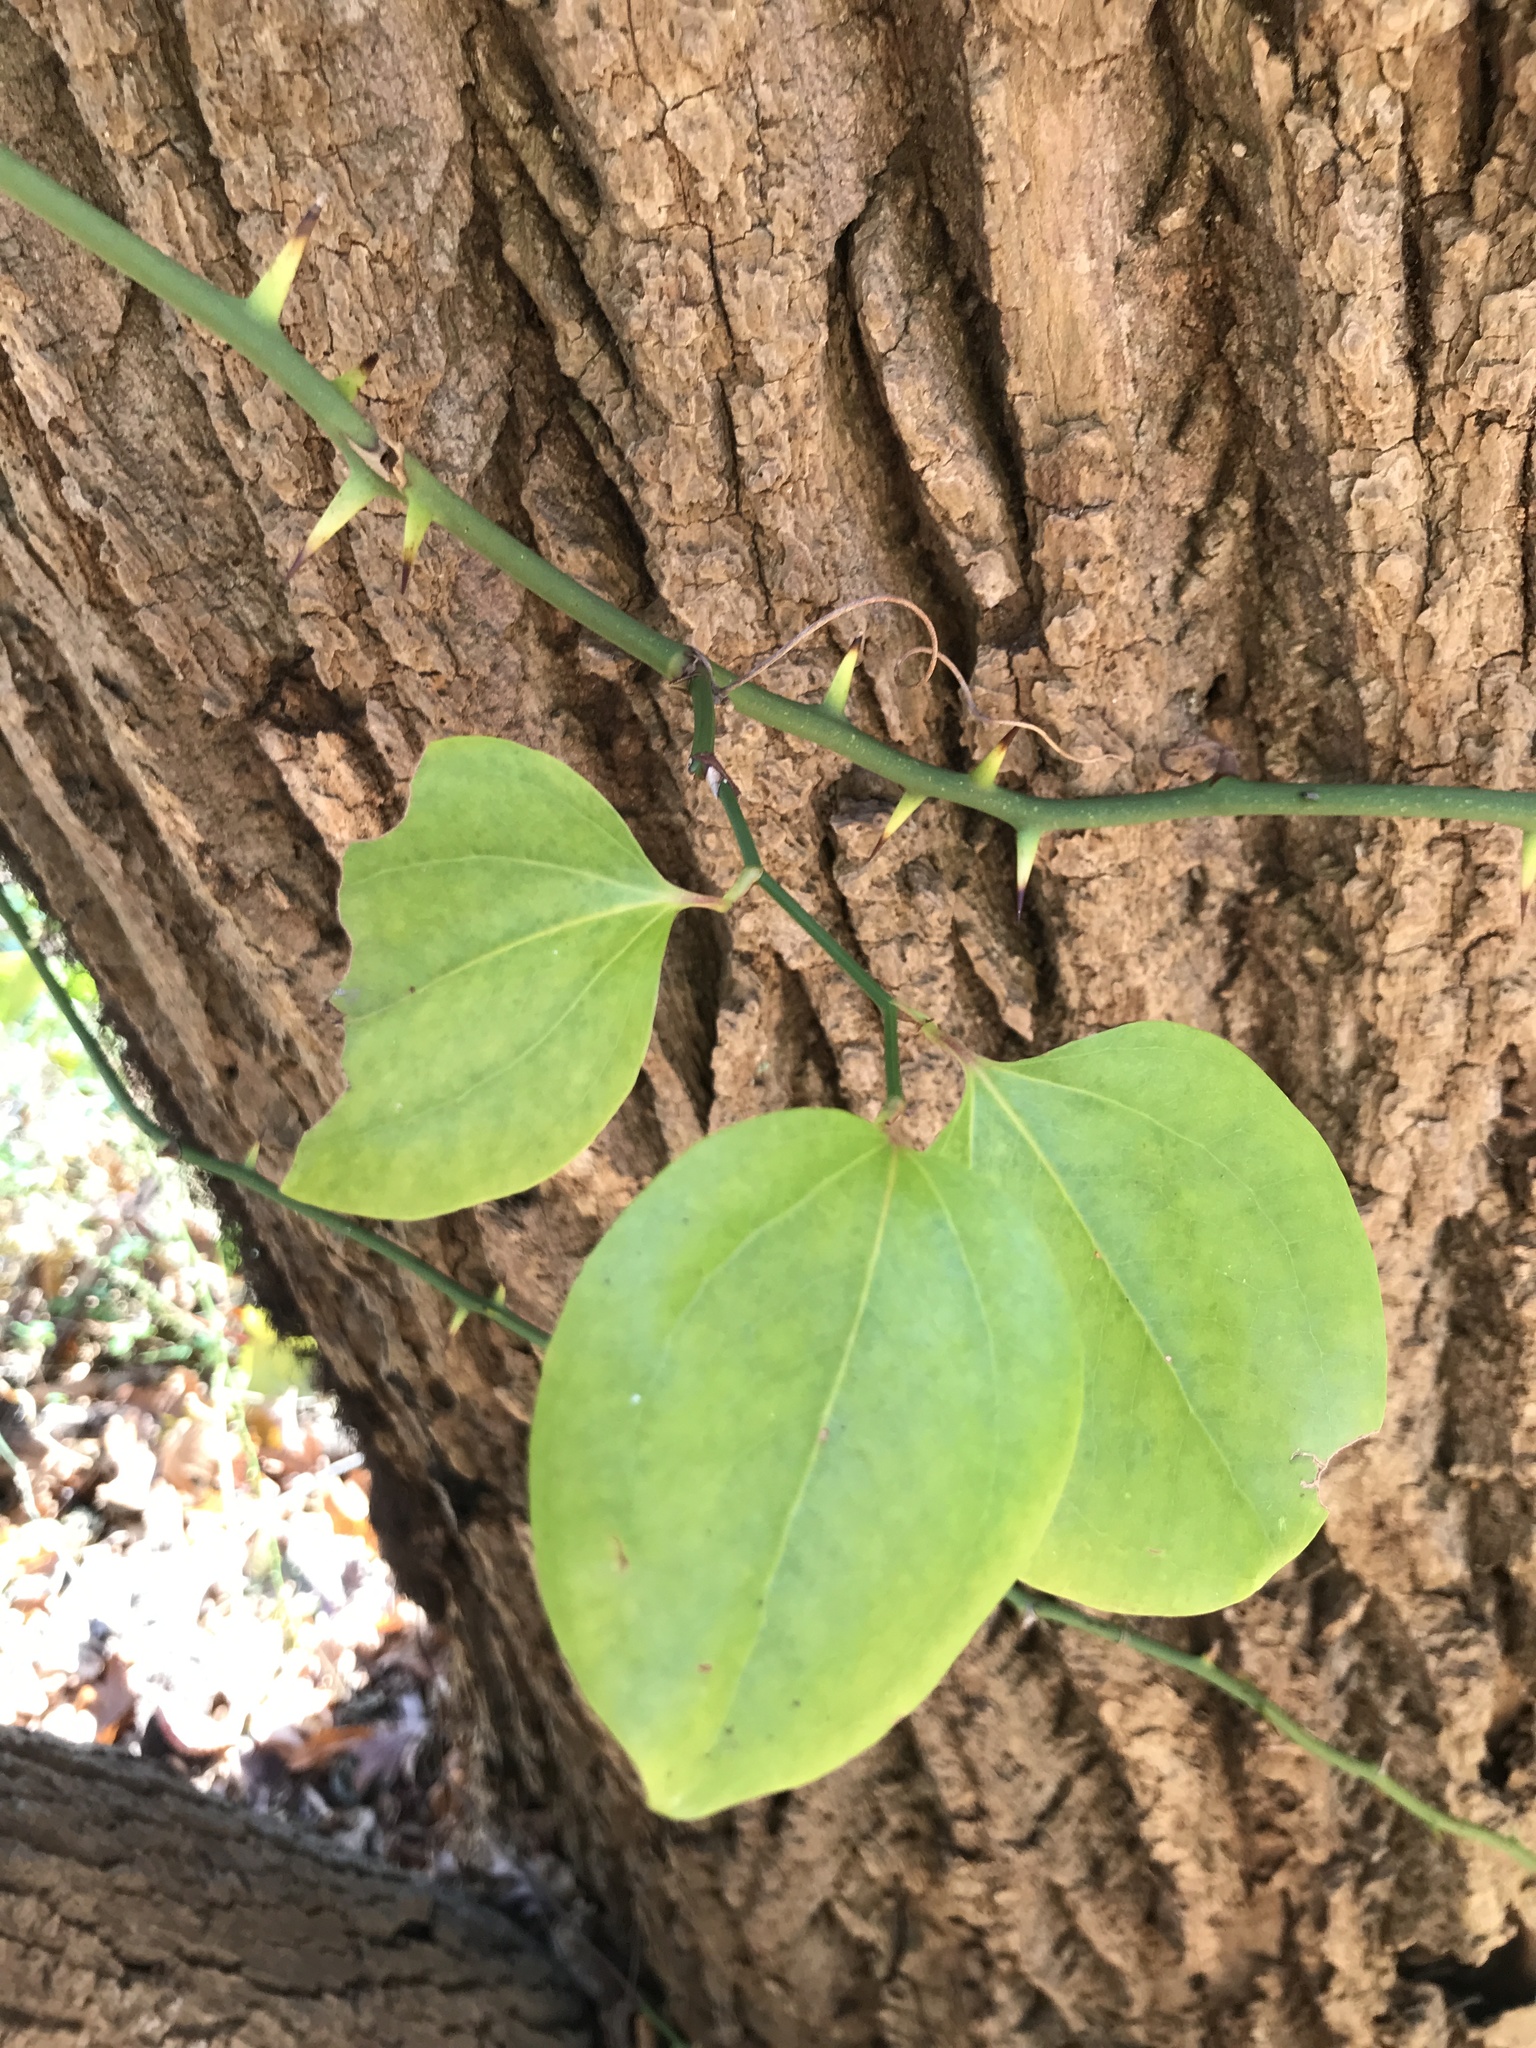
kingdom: Plantae
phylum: Tracheophyta
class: Liliopsida
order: Liliales
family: Smilacaceae
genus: Smilax
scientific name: Smilax rotundifolia
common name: Bullbriar
